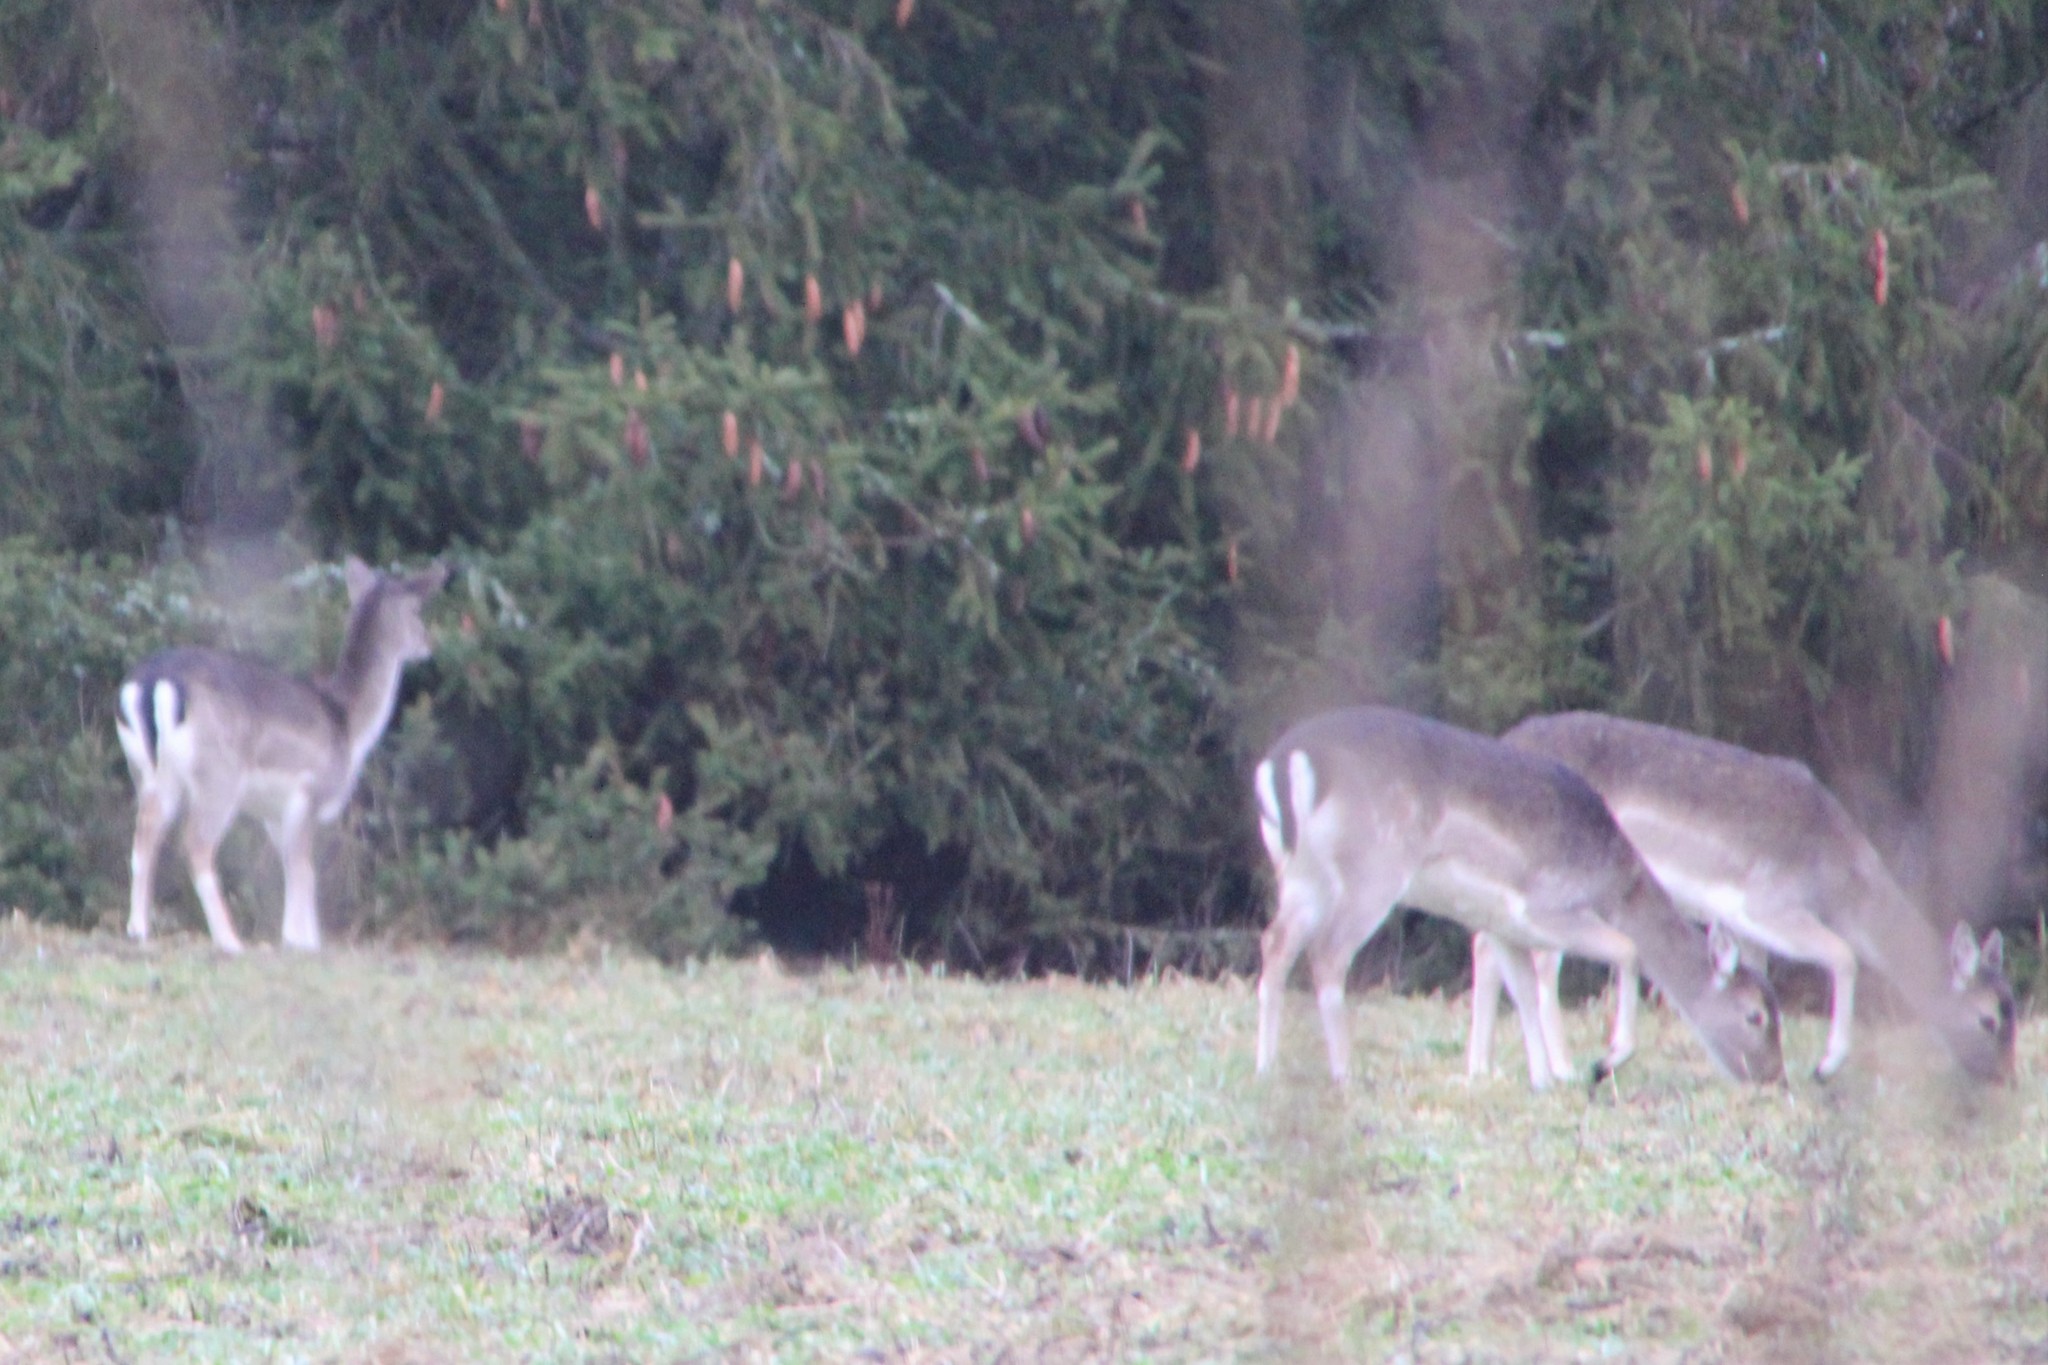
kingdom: Animalia
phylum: Chordata
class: Mammalia
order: Artiodactyla
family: Cervidae
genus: Dama
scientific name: Dama dama
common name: Fallow deer
